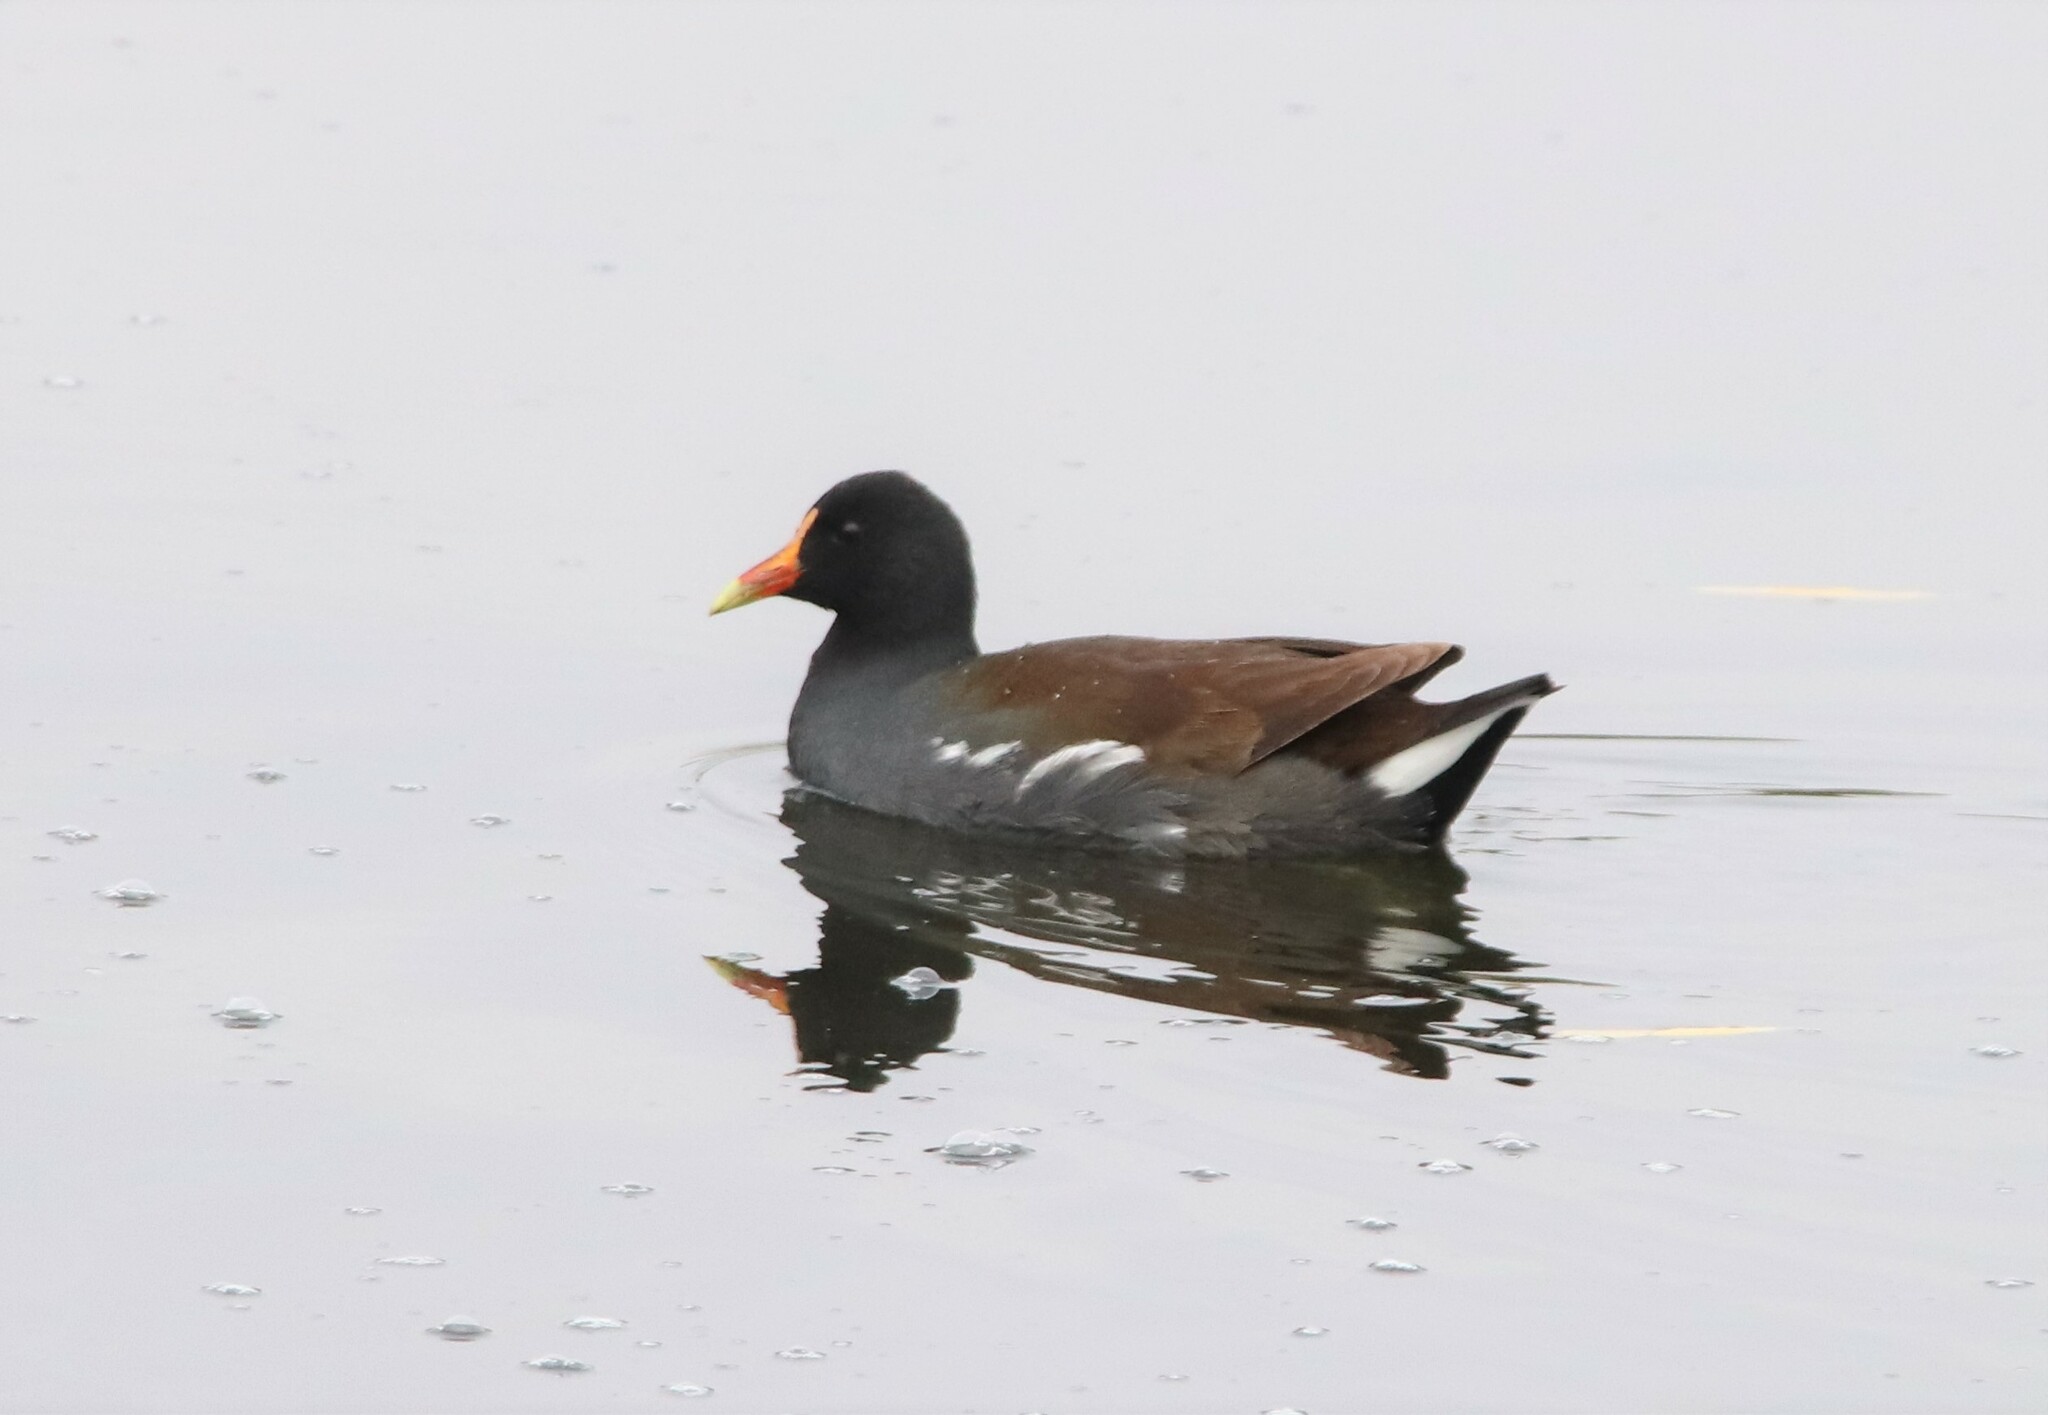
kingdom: Animalia
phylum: Chordata
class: Aves
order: Gruiformes
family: Rallidae
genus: Gallinula
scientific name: Gallinula chloropus
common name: Common moorhen
